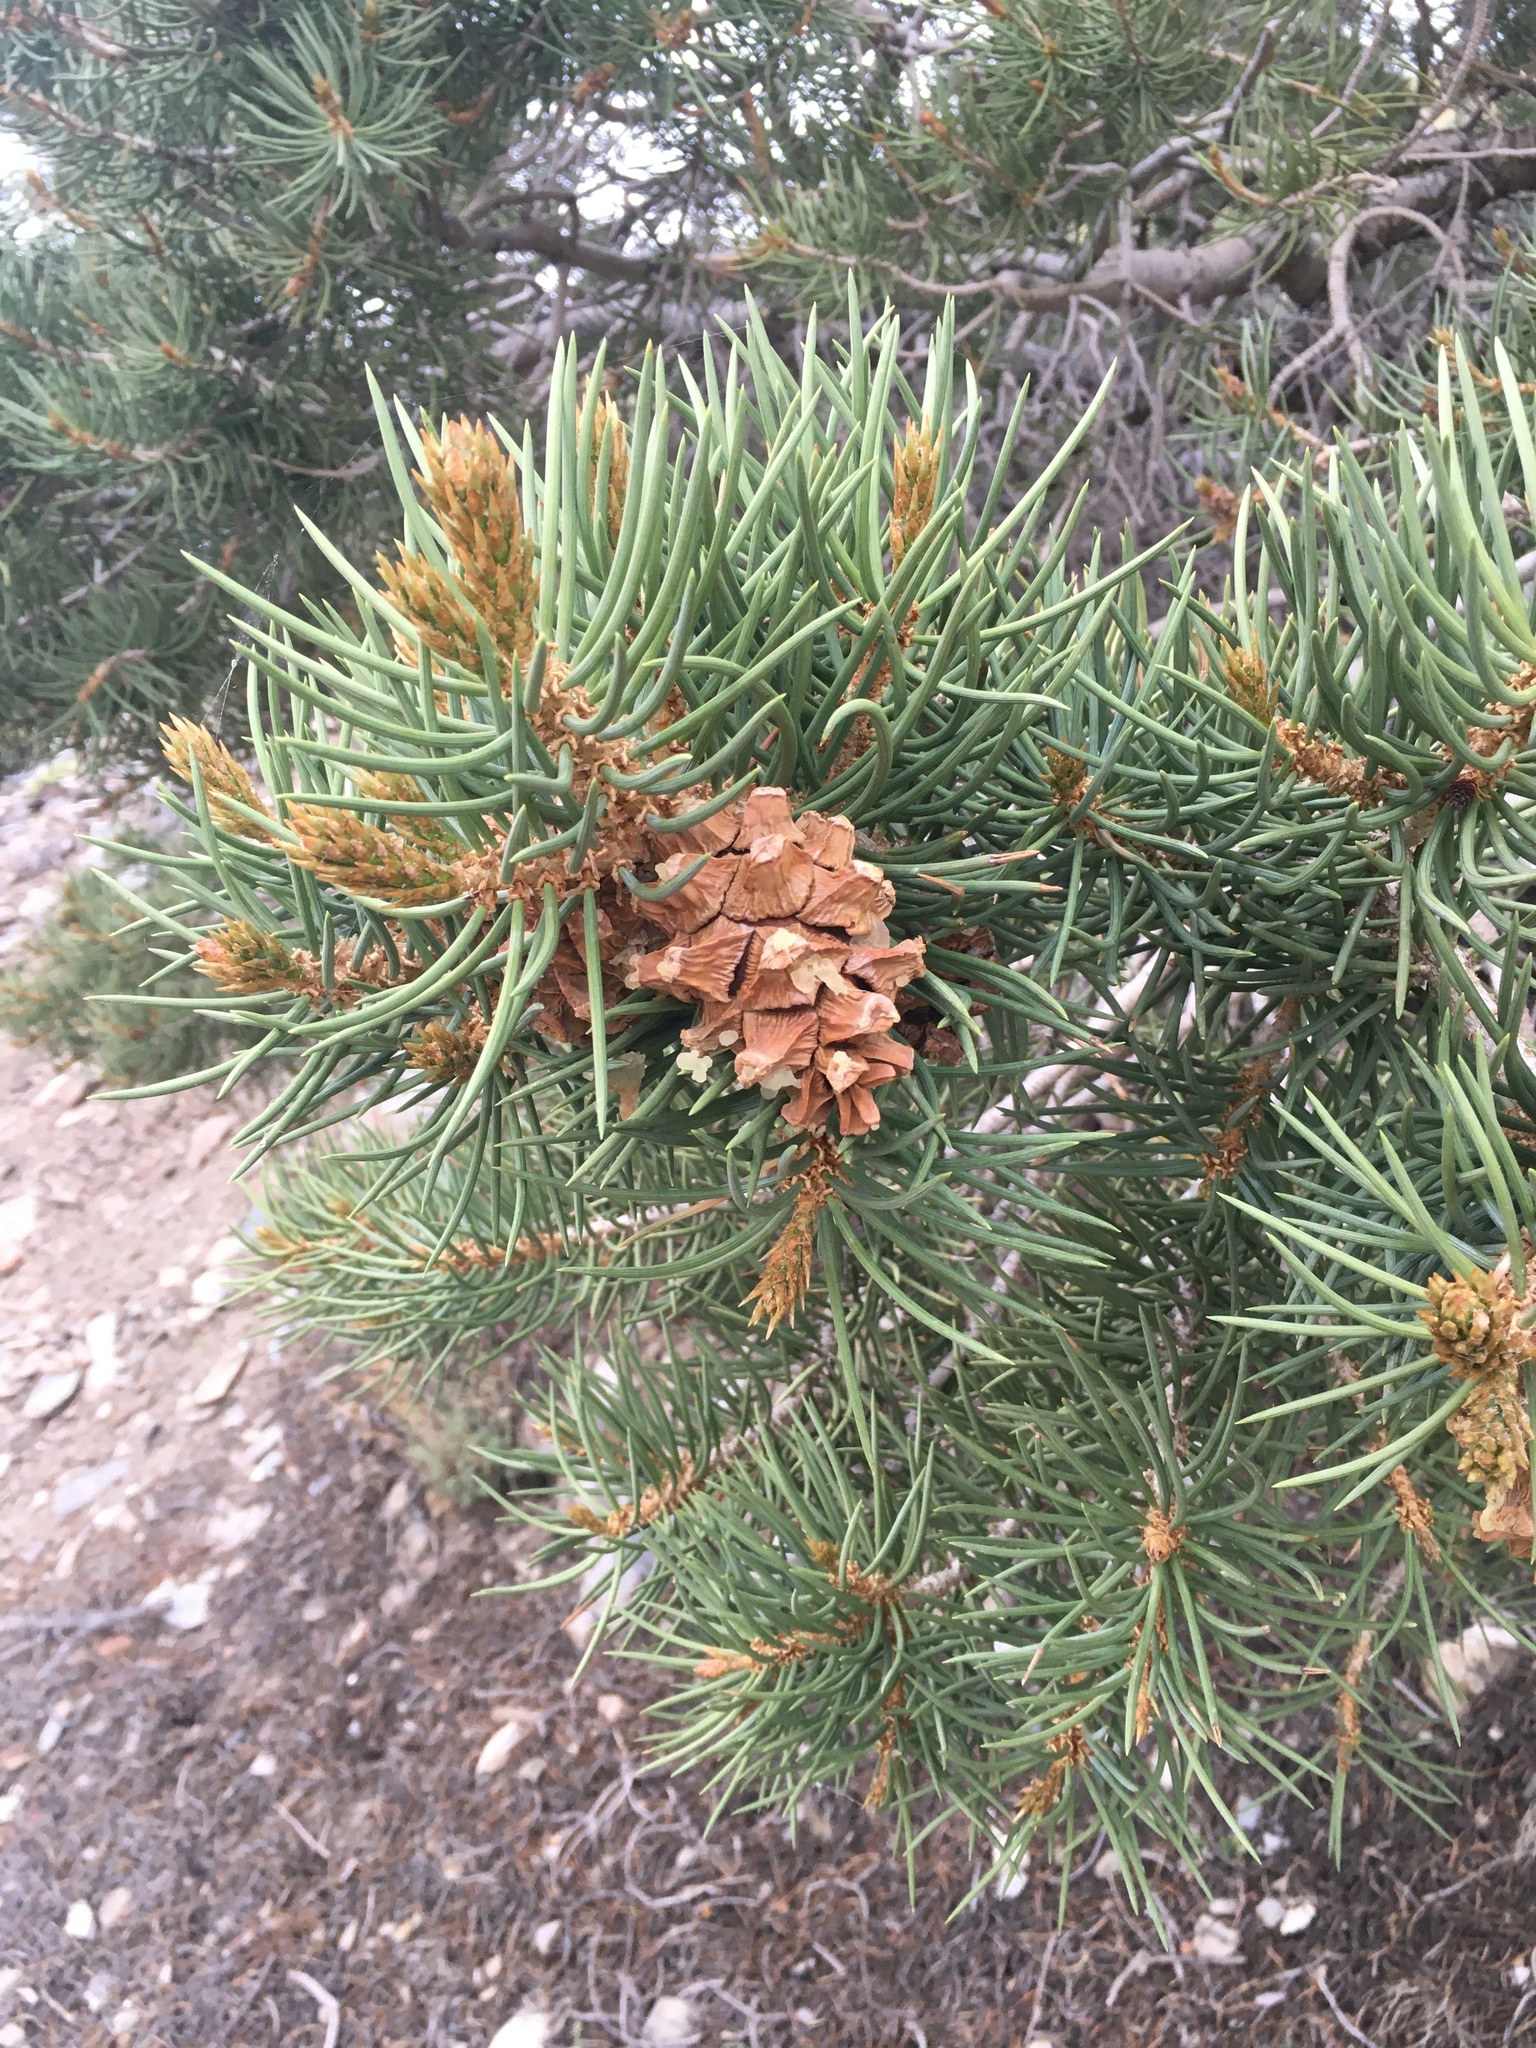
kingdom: Plantae
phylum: Tracheophyta
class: Pinopsida
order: Pinales
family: Pinaceae
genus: Pinus
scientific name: Pinus monophylla
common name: One-leaved nut pine
